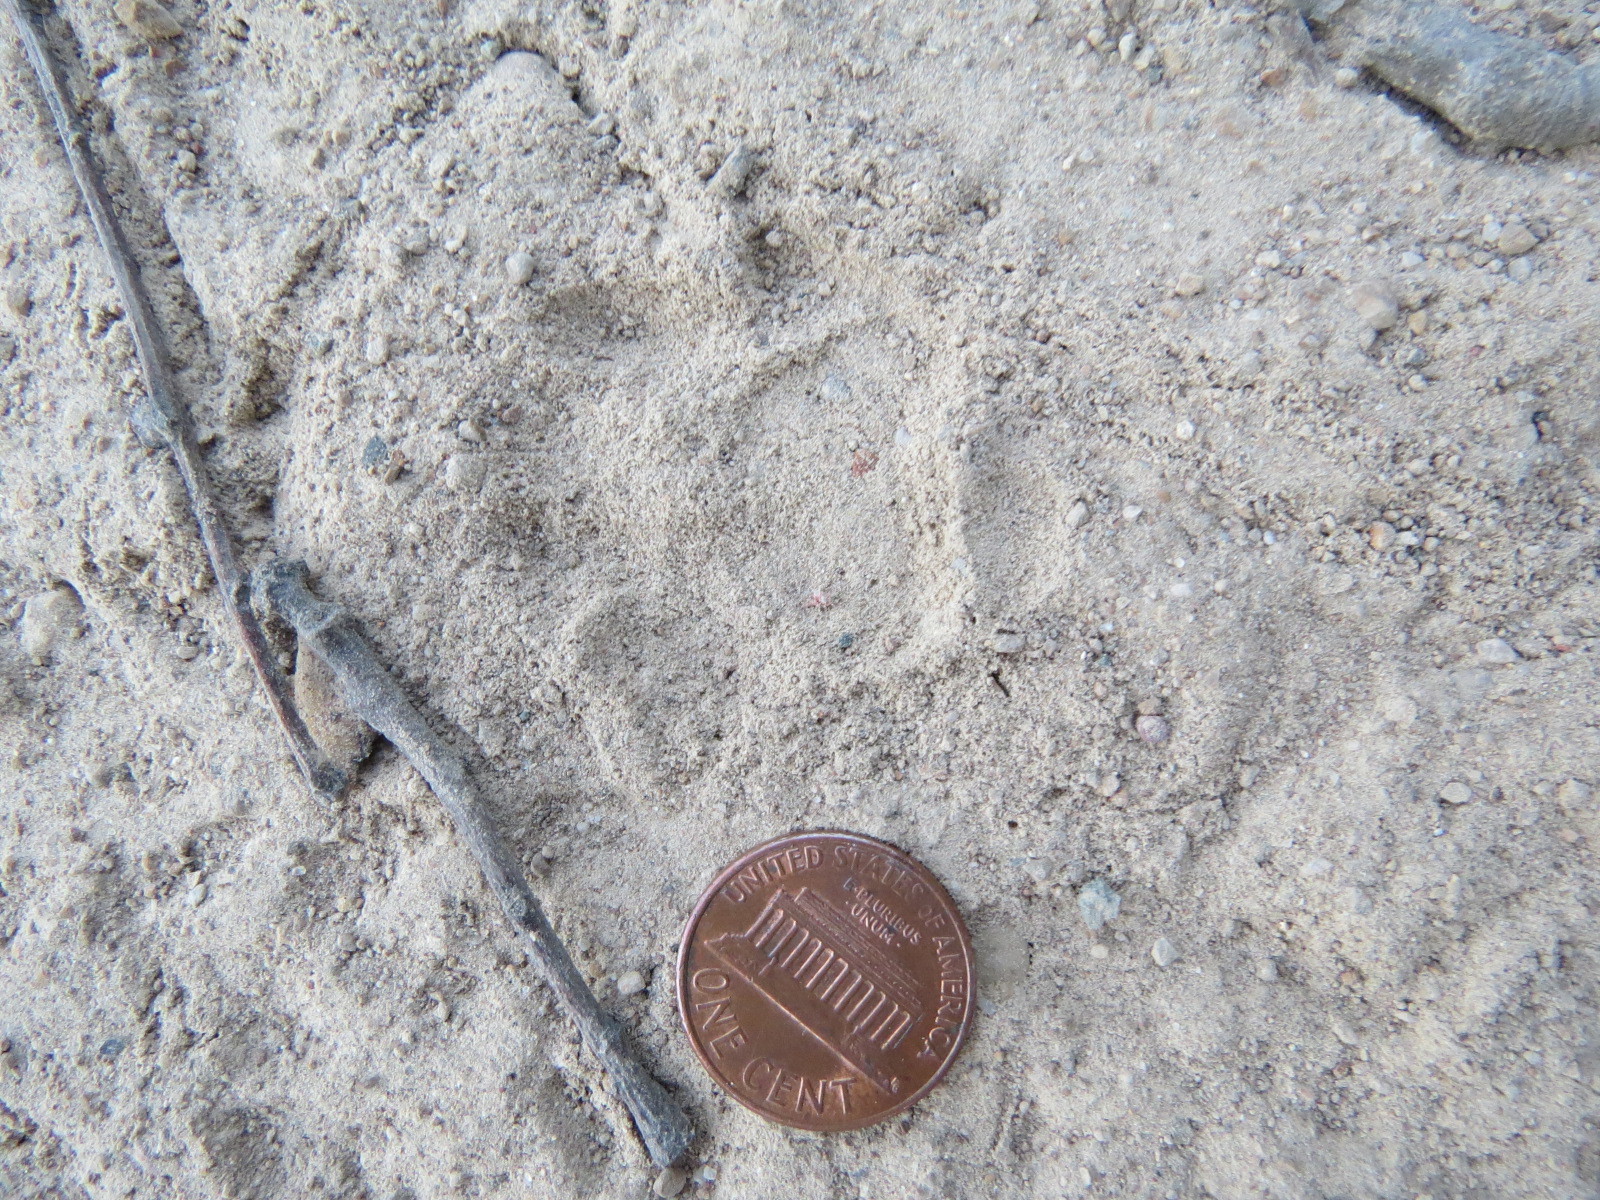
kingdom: Animalia
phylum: Chordata
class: Mammalia
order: Carnivora
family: Mephitidae
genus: Mephitis
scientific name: Mephitis mephitis
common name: Striped skunk
